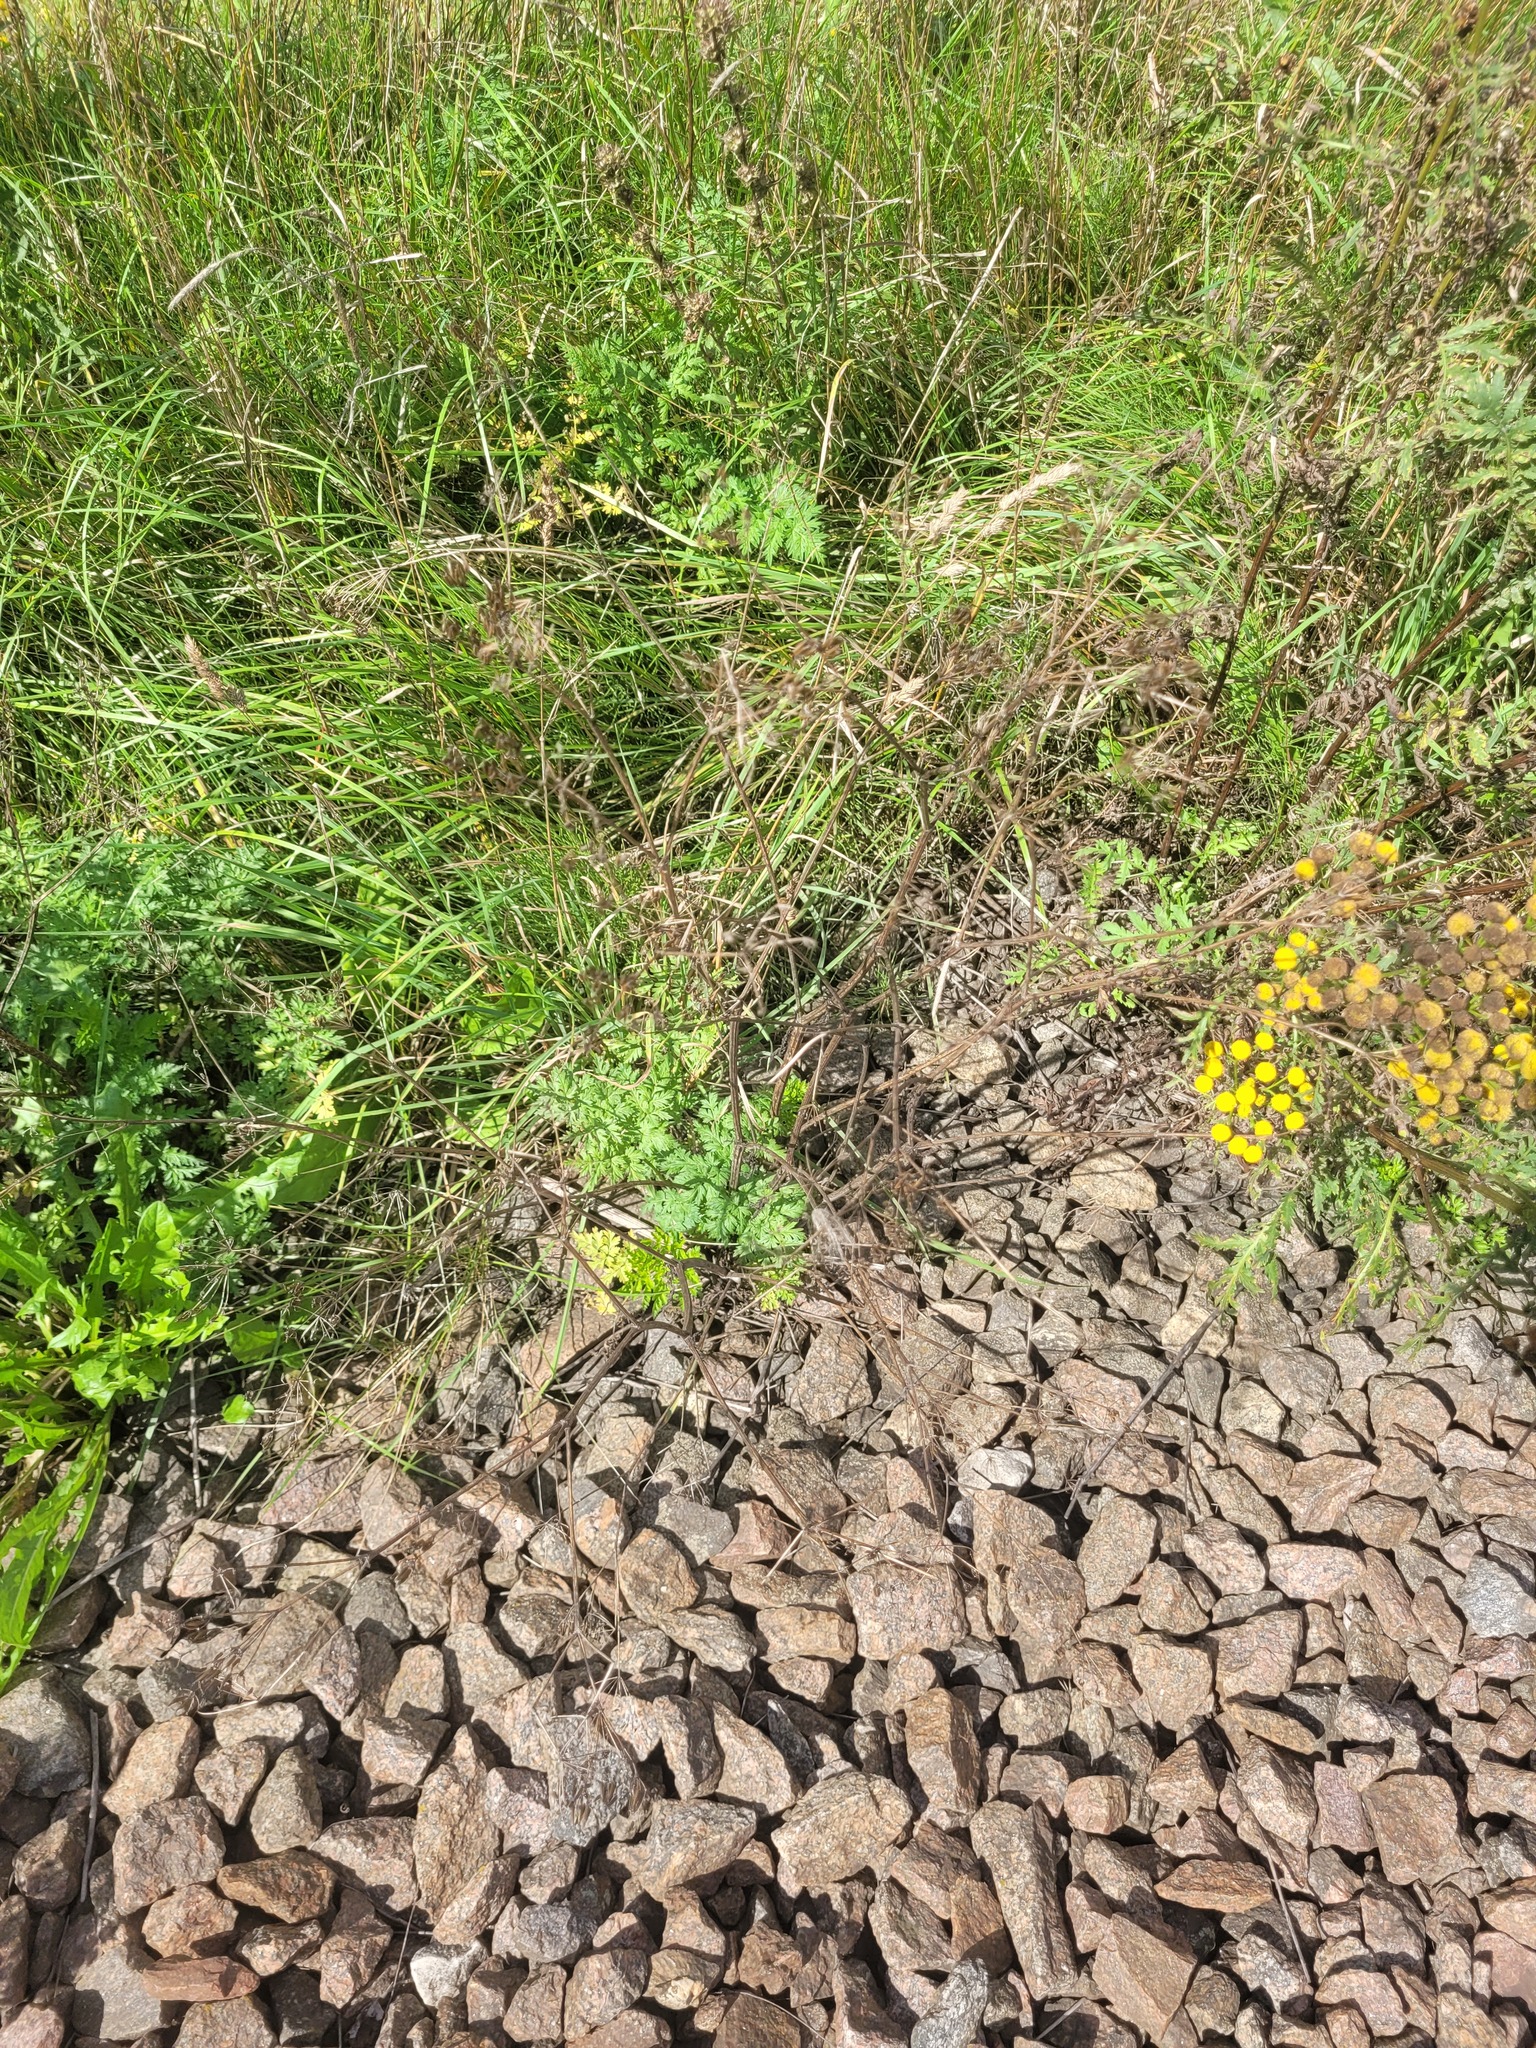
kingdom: Plantae
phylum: Tracheophyta
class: Magnoliopsida
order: Apiales
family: Apiaceae
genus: Anthriscus
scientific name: Anthriscus sylvestris
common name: Cow parsley
